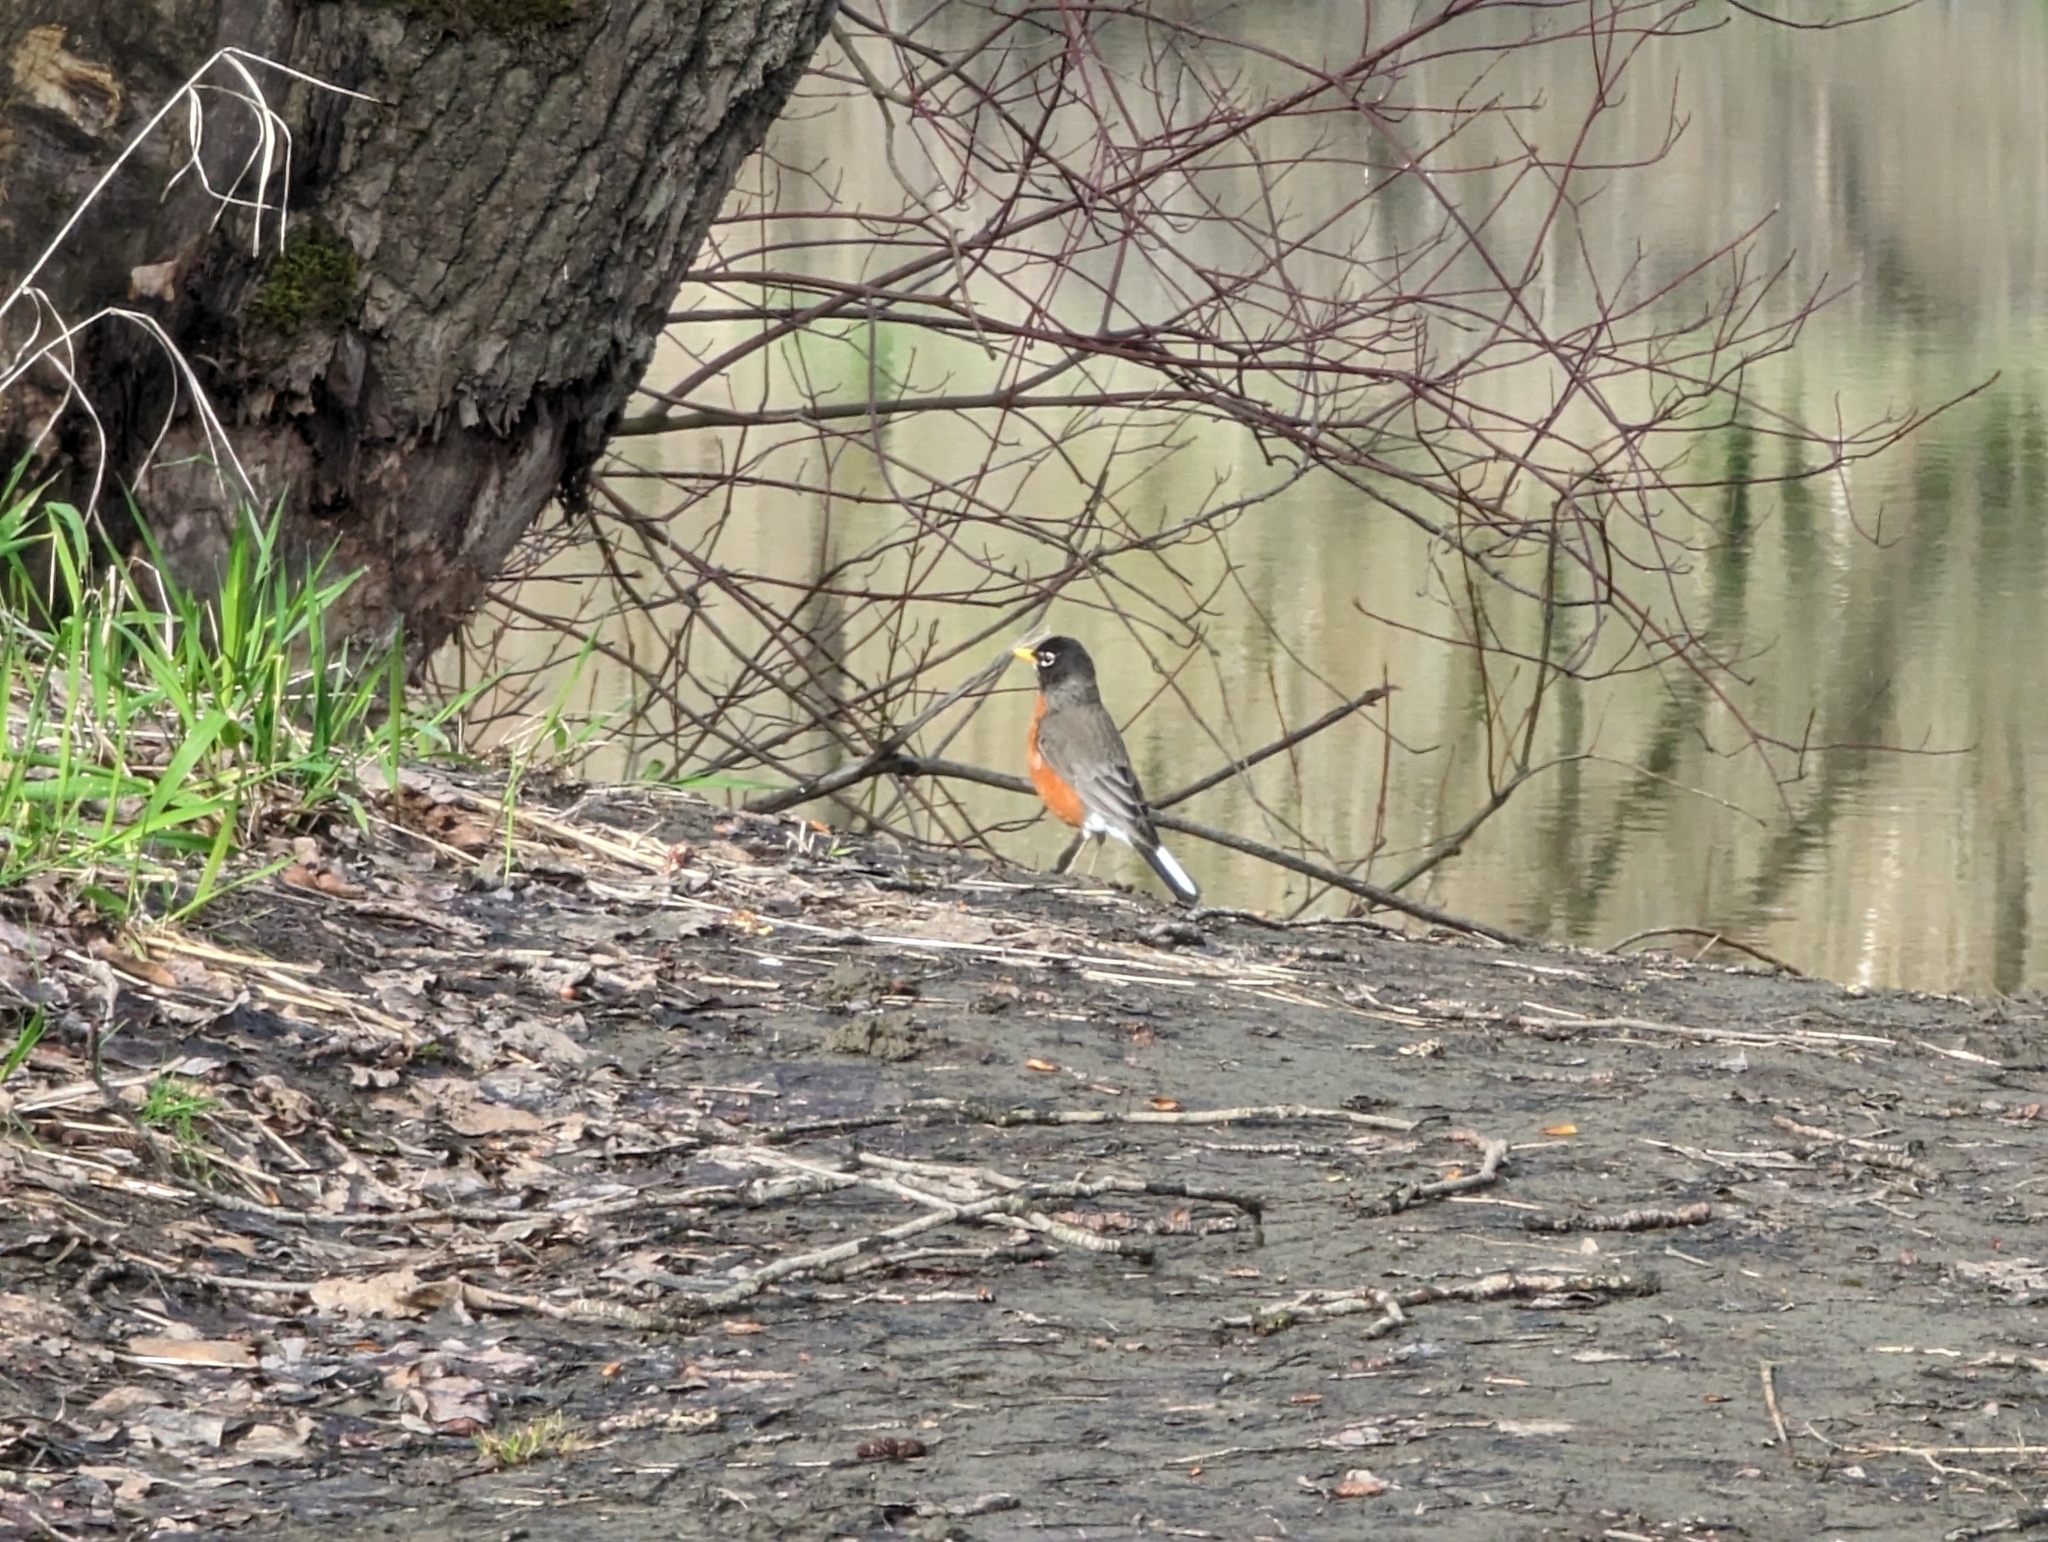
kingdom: Animalia
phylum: Chordata
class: Aves
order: Passeriformes
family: Turdidae
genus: Turdus
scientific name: Turdus migratorius
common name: American robin
